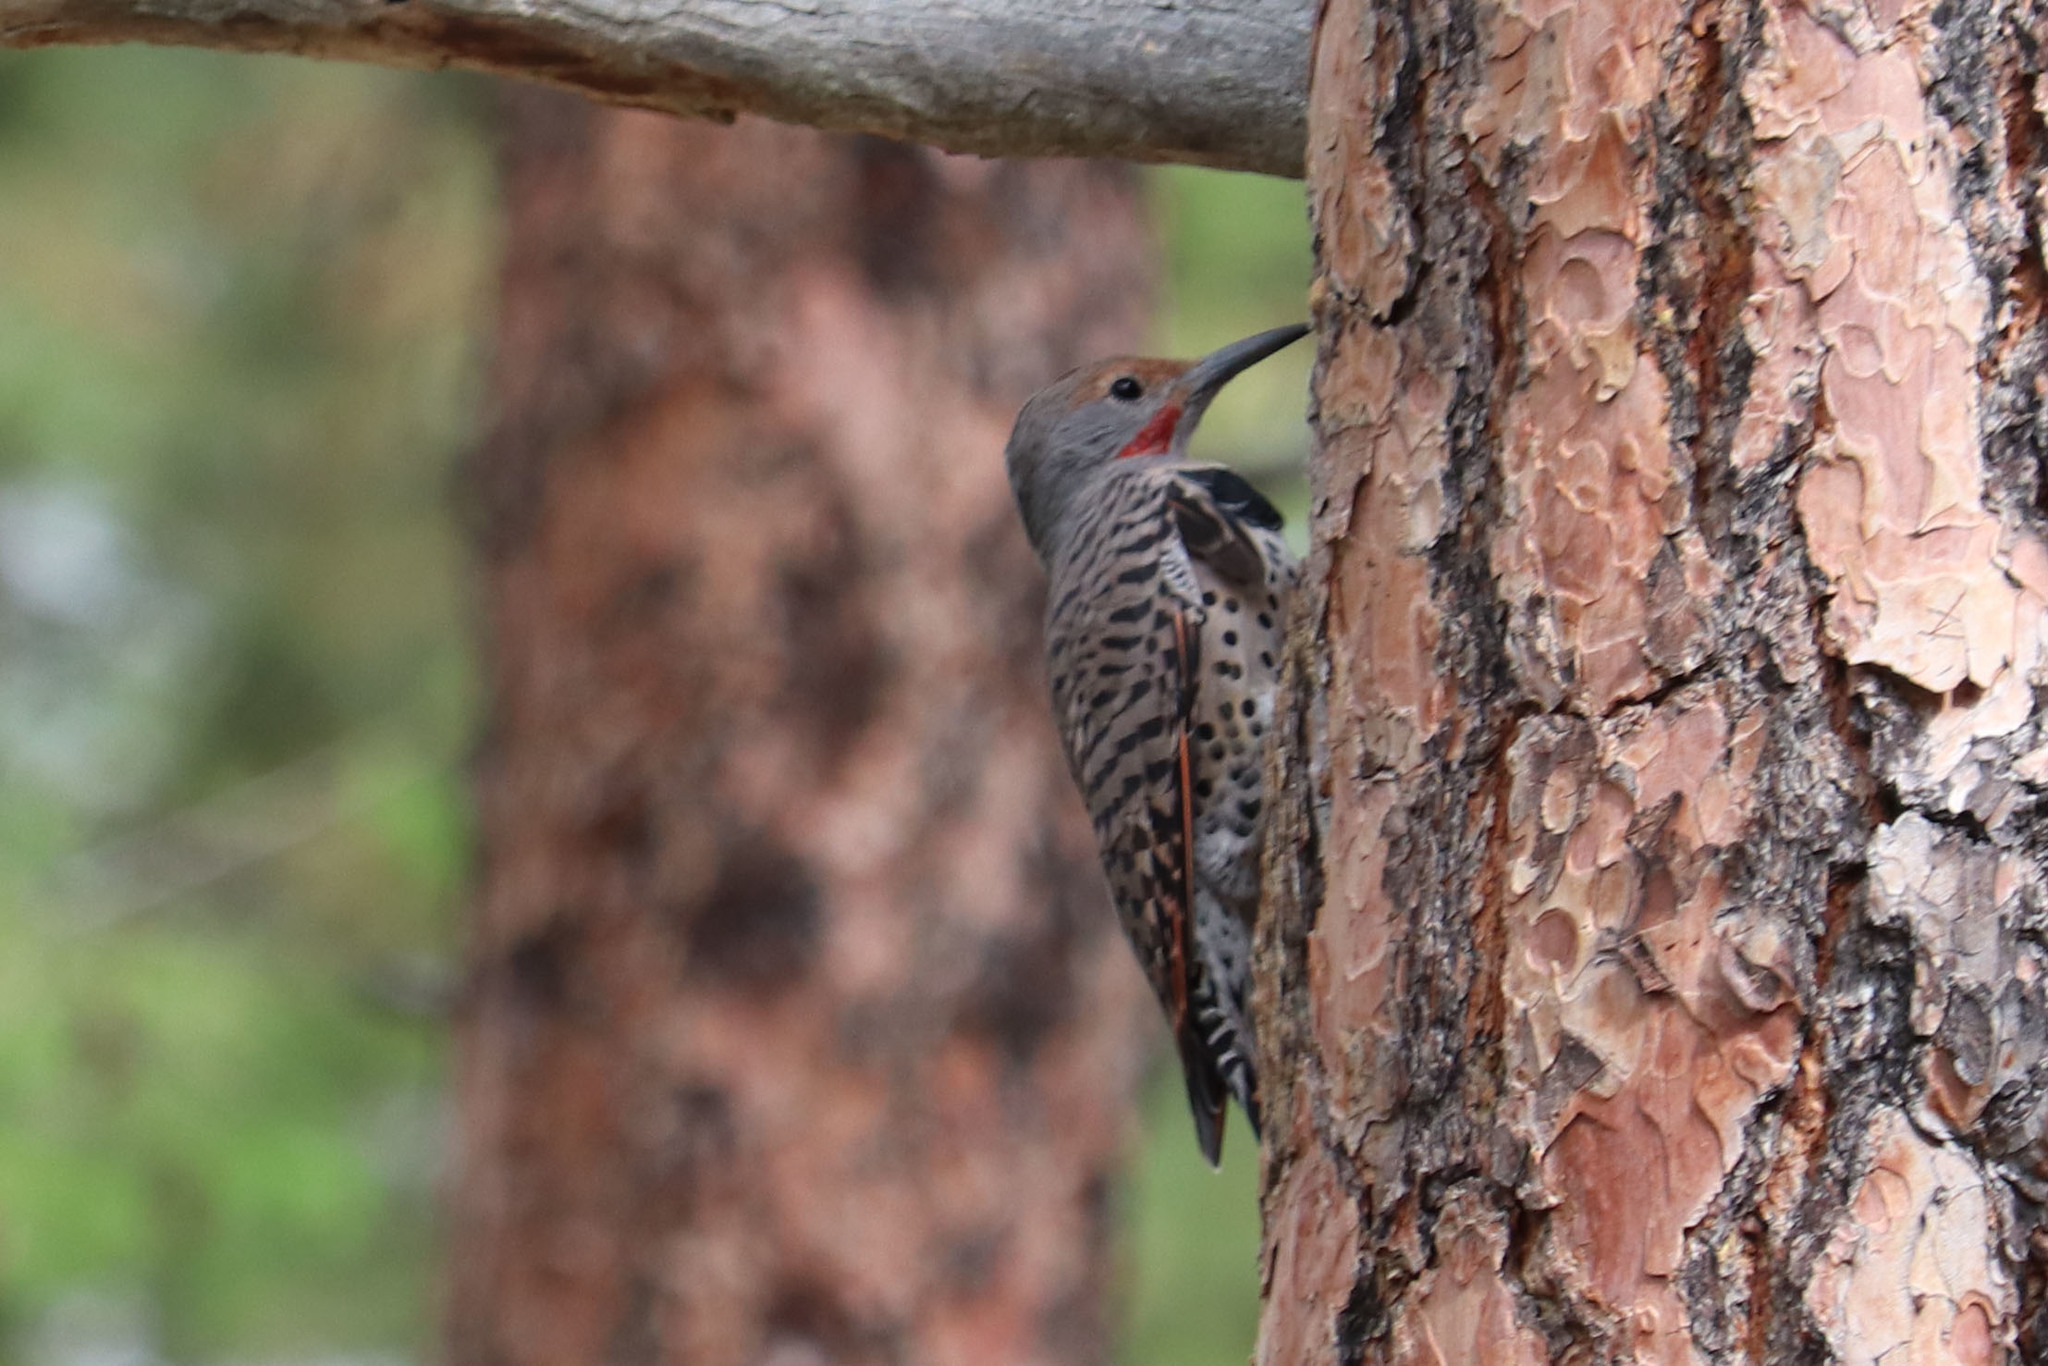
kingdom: Animalia
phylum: Chordata
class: Aves
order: Piciformes
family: Picidae
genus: Colaptes
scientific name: Colaptes auratus
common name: Northern flicker
